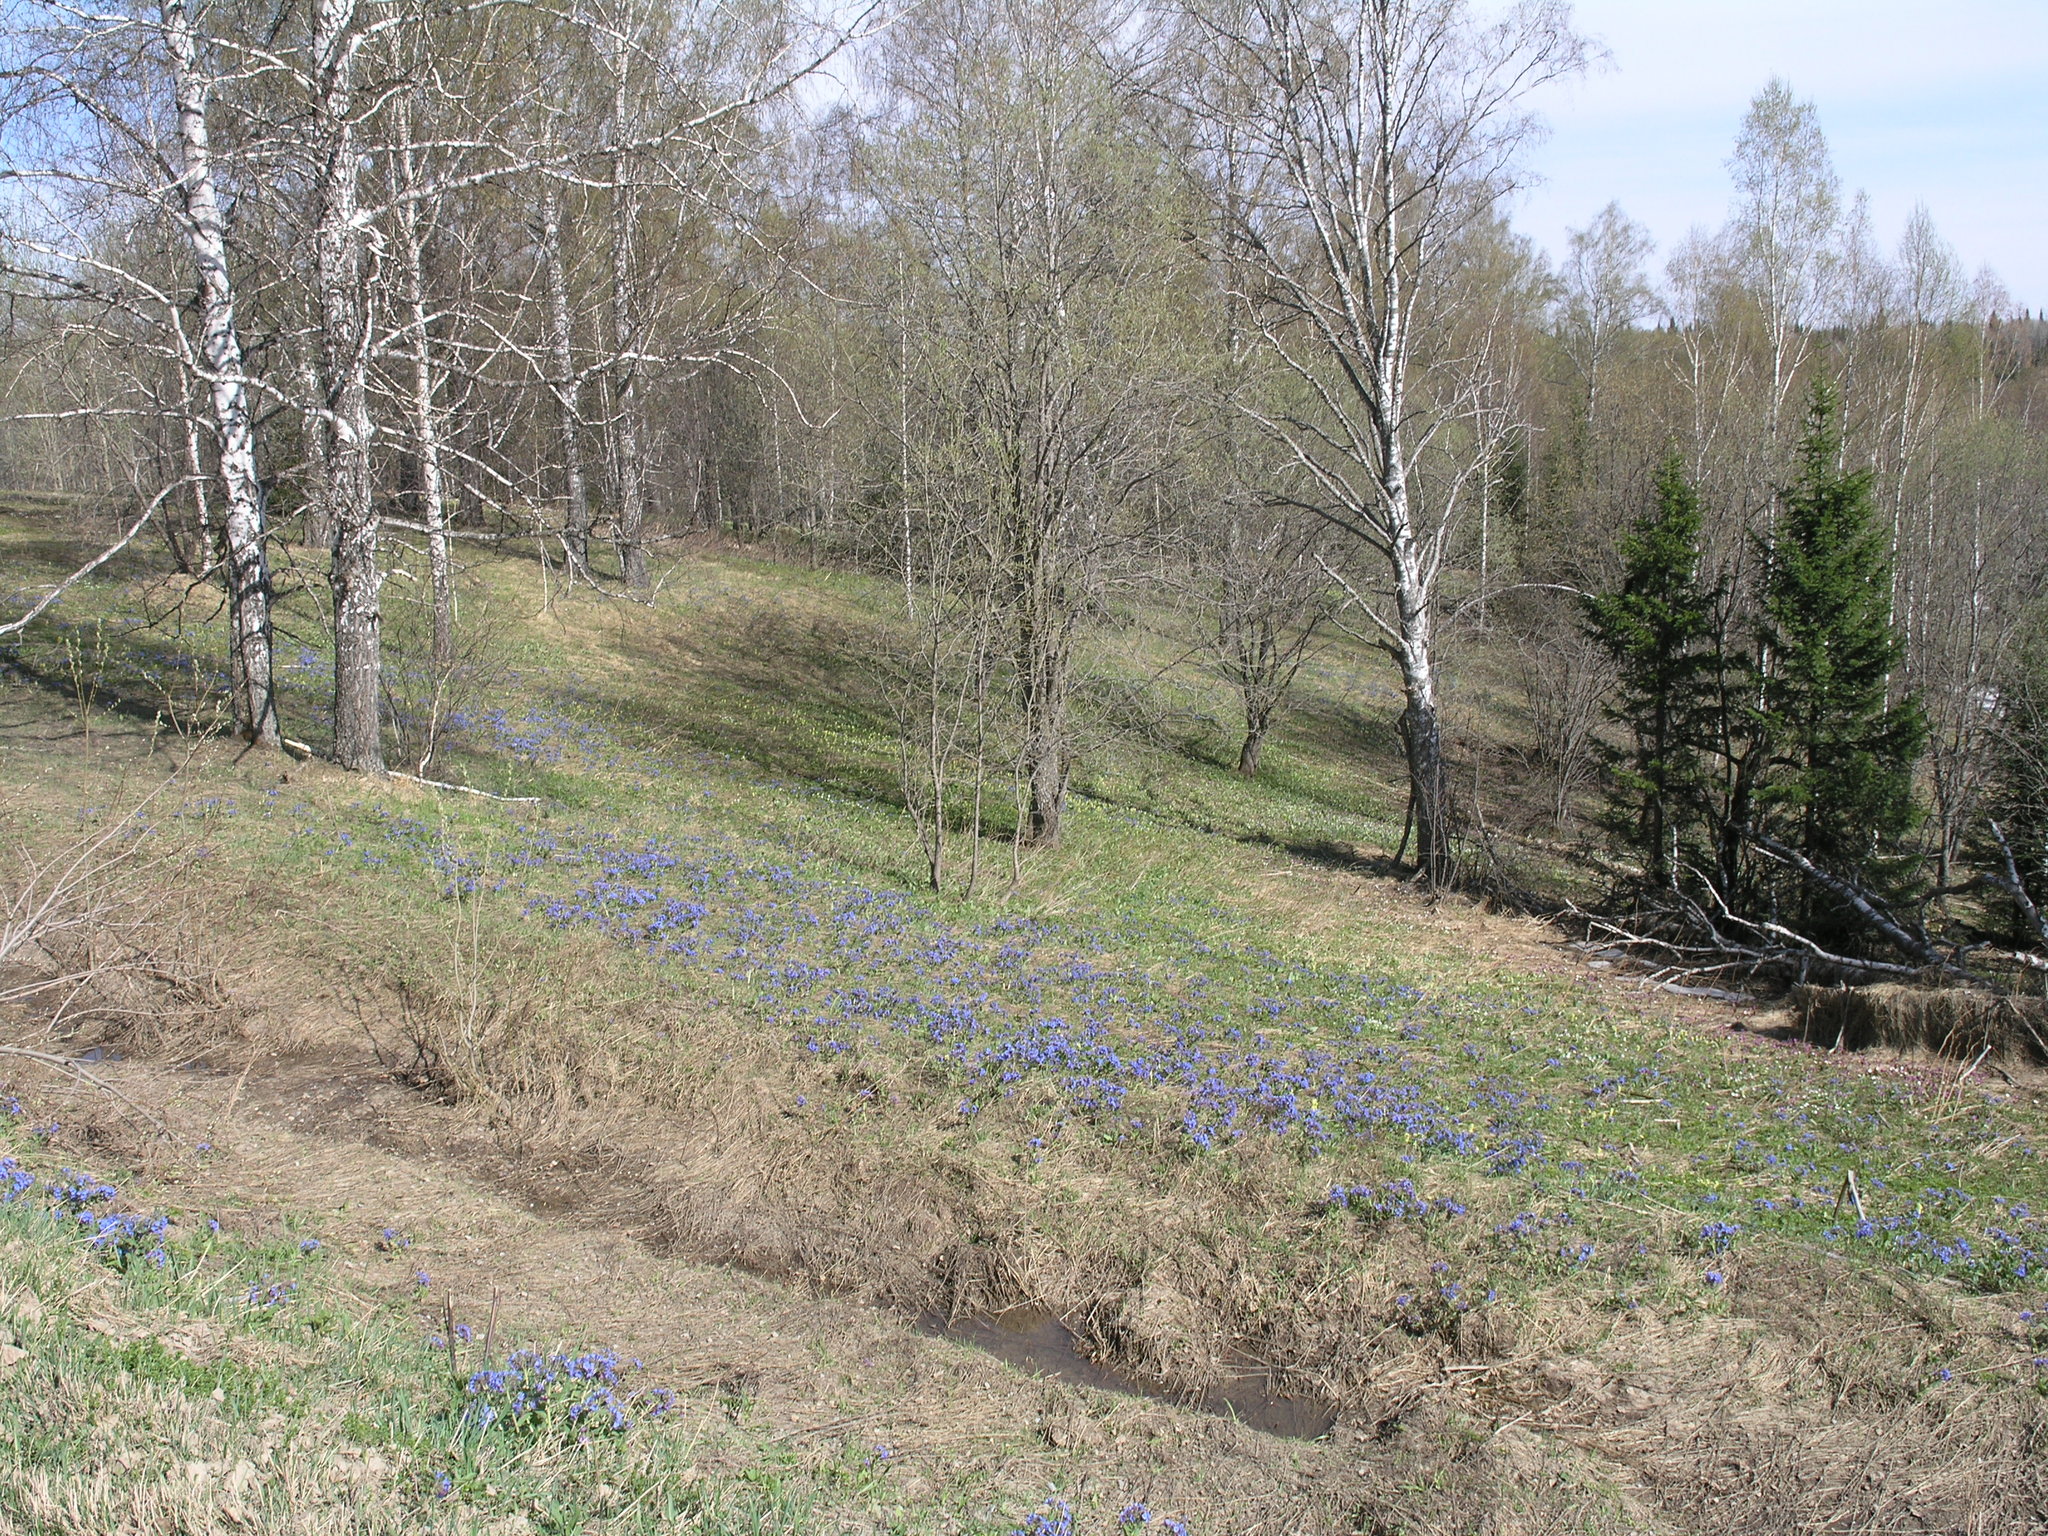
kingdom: Plantae
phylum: Tracheophyta
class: Magnoliopsida
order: Fagales
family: Betulaceae
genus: Betula
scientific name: Betula pendula
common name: Silver birch
